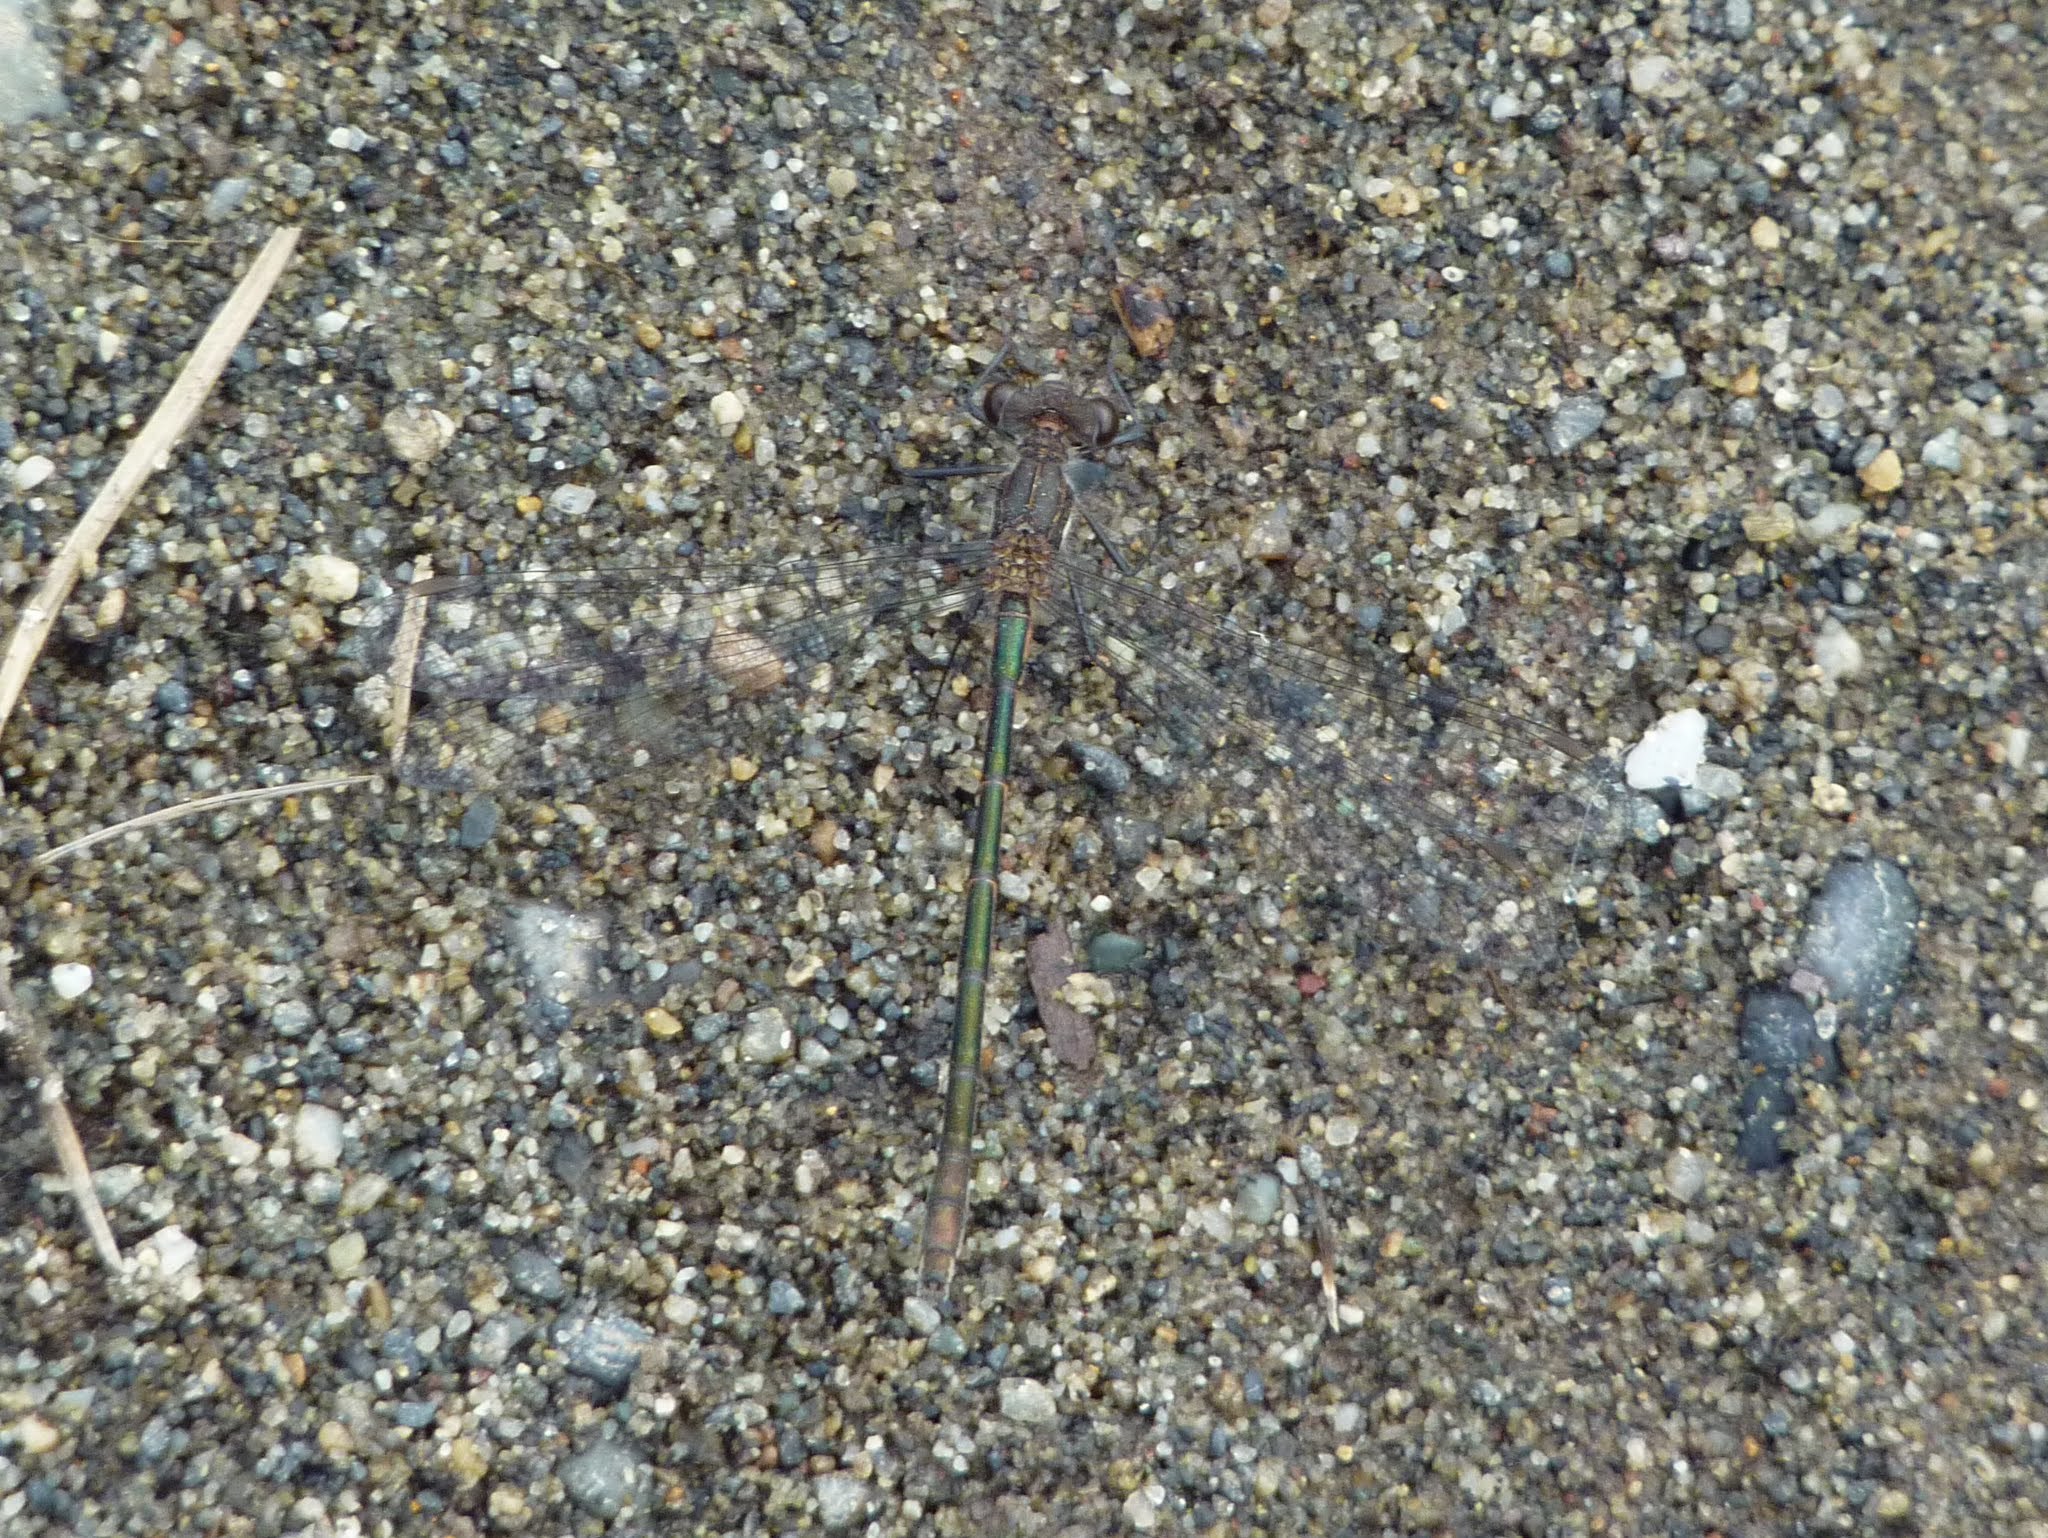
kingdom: Animalia
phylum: Arthropoda
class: Insecta
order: Odonata
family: Lestidae
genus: Lestes
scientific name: Lestes dryas
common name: Scarce emerald damselfly
